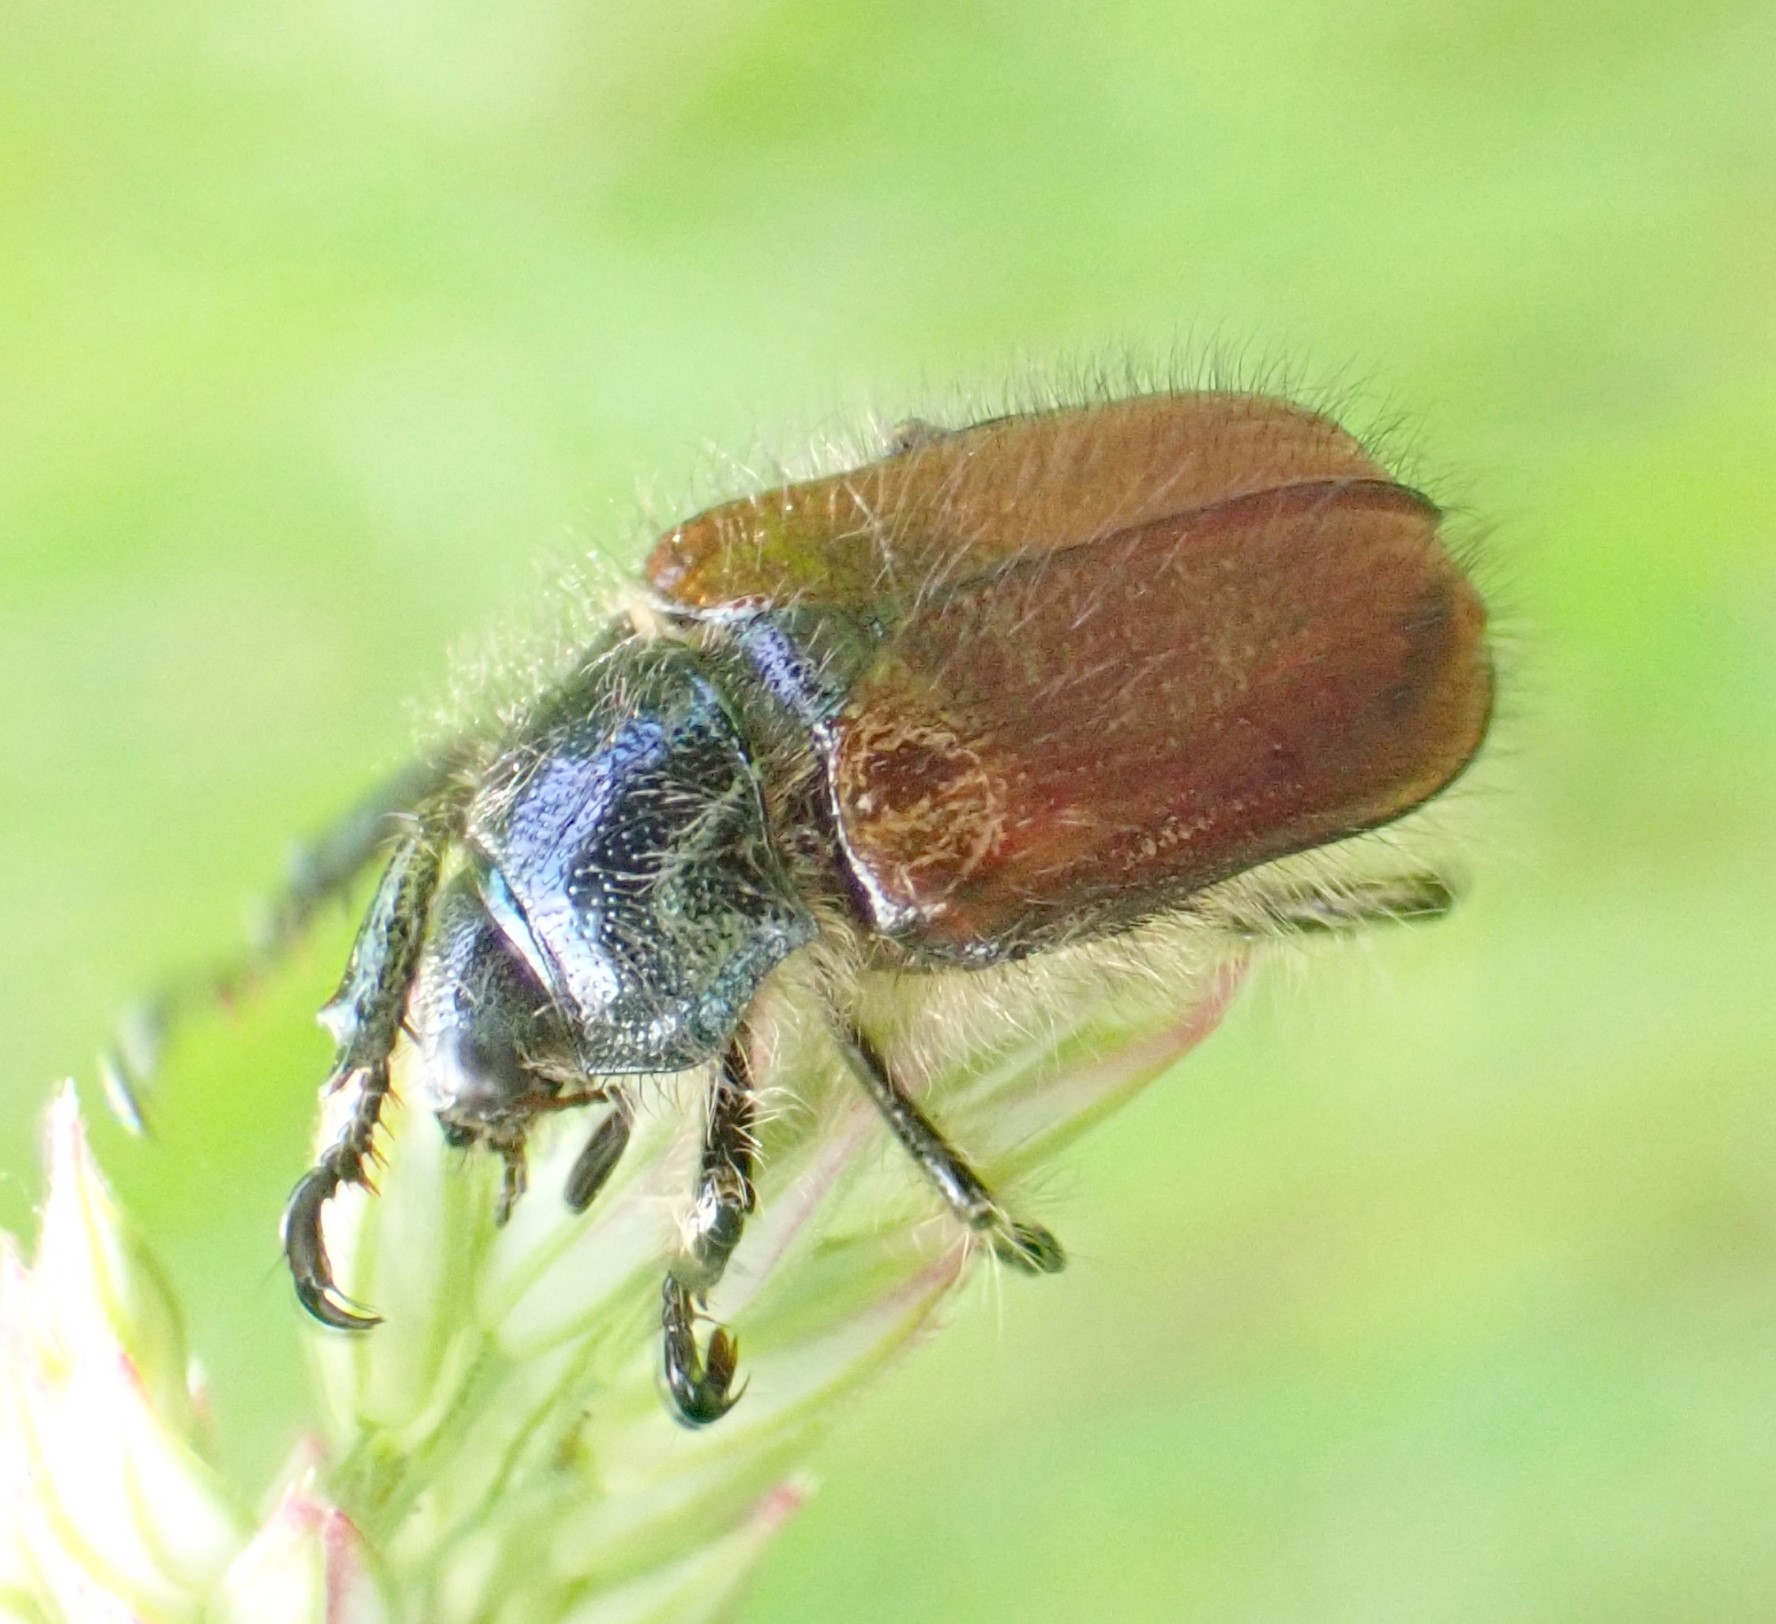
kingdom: Animalia
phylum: Arthropoda
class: Insecta
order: Coleoptera
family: Scarabaeidae
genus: Phyllopertha
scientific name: Phyllopertha horticola
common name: Garden chafer
